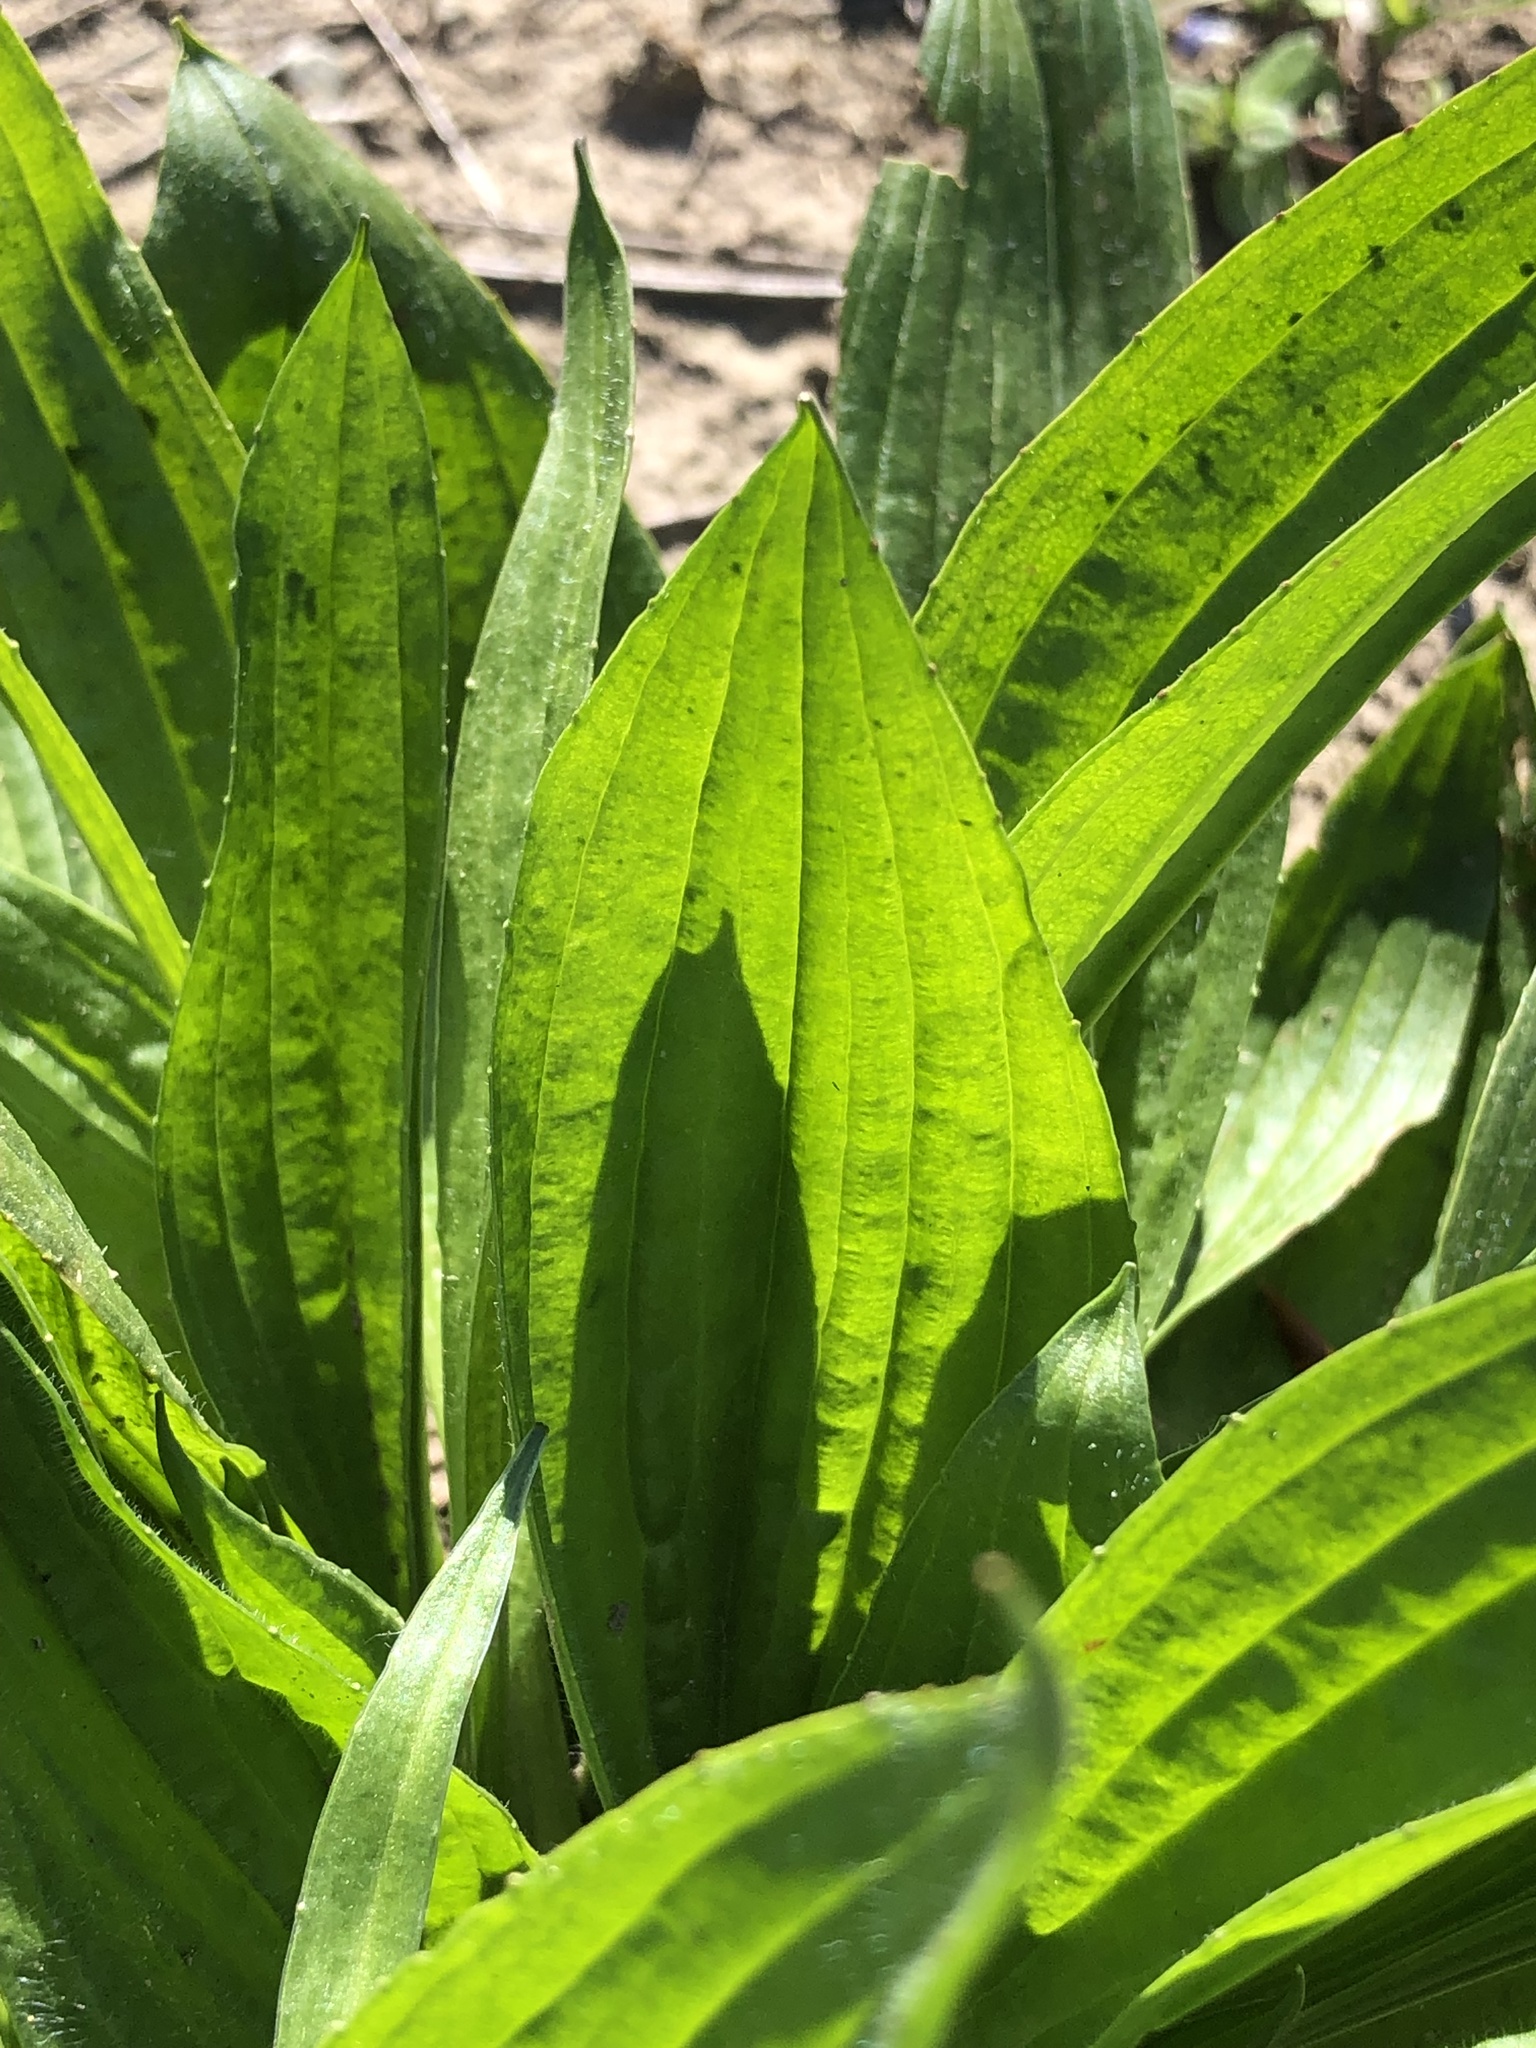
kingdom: Plantae
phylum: Tracheophyta
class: Magnoliopsida
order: Lamiales
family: Plantaginaceae
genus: Plantago
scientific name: Plantago lanceolata
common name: Ribwort plantain
